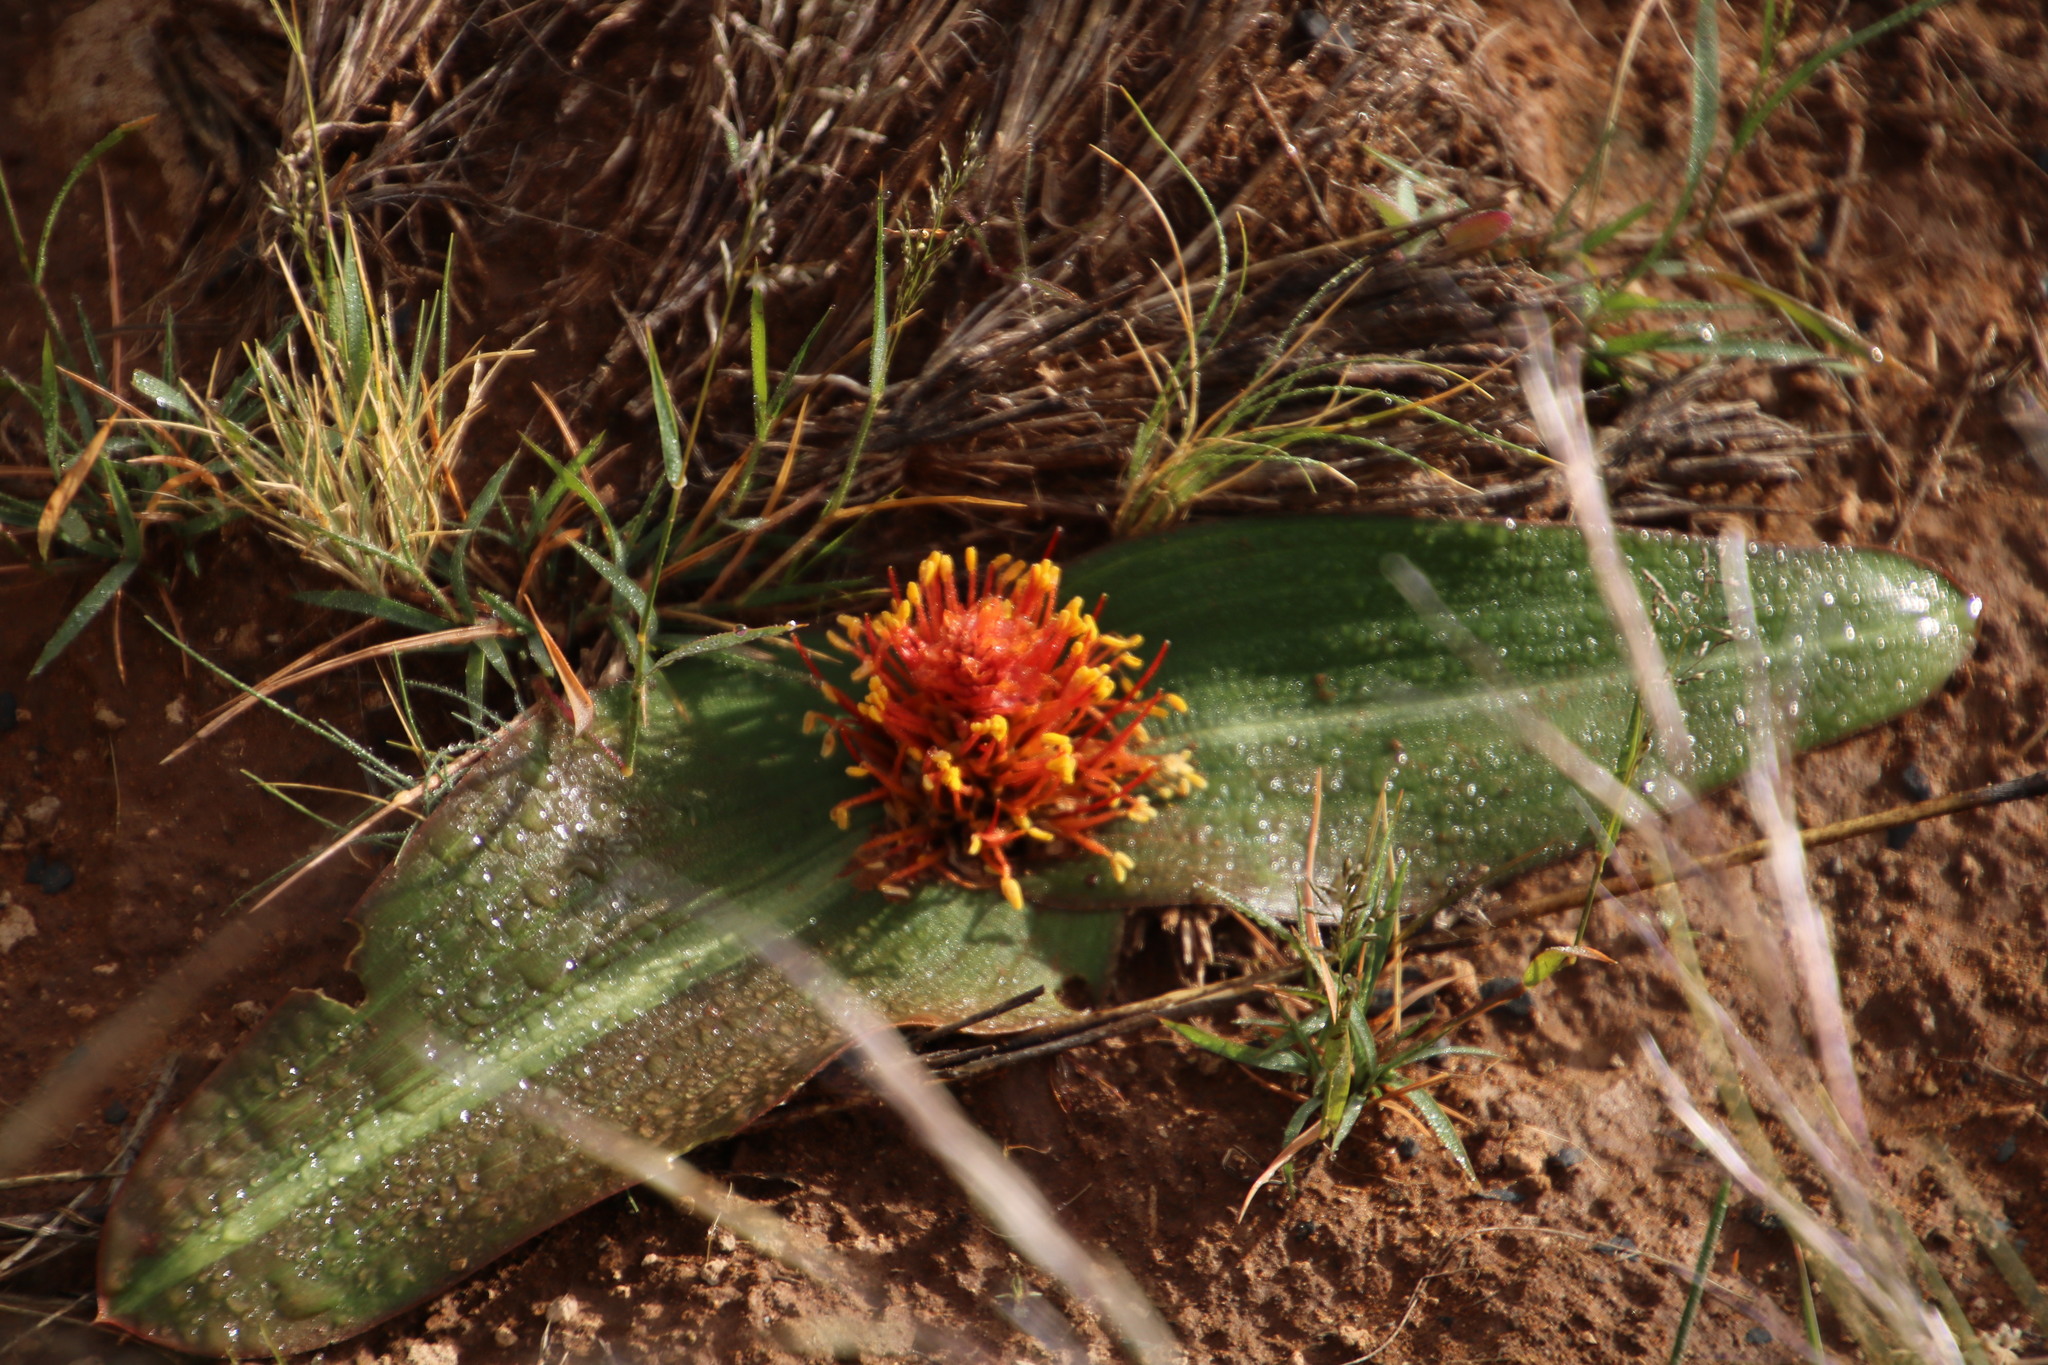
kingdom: Plantae
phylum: Tracheophyta
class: Liliopsida
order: Asparagales
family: Asparagaceae
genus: Daubenya
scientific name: Daubenya marginata
